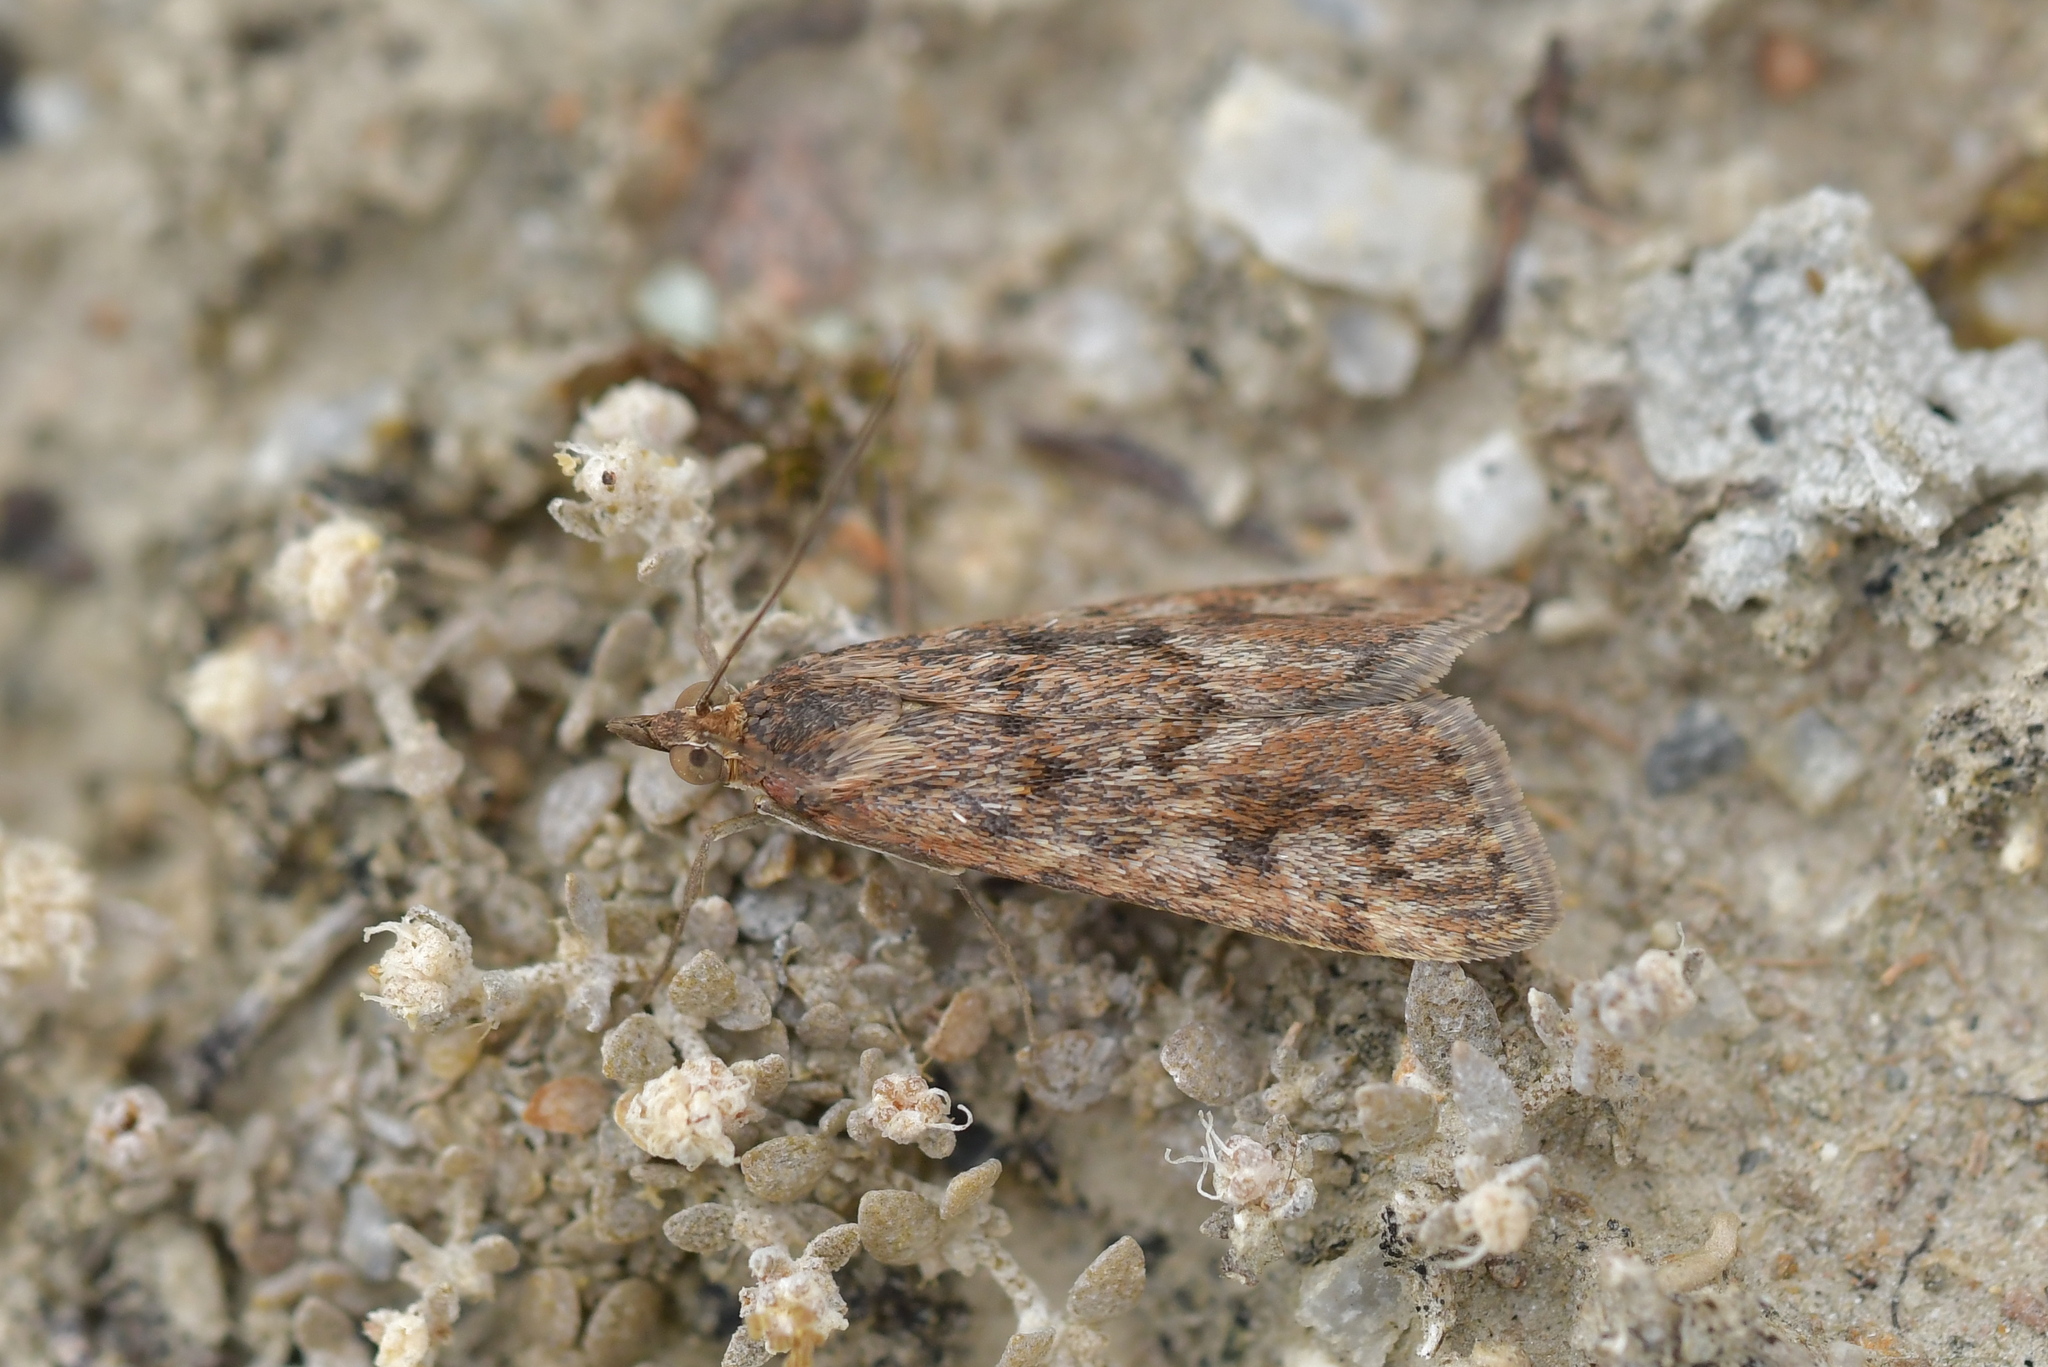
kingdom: Animalia
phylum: Arthropoda
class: Insecta
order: Lepidoptera
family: Crambidae
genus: Achyra
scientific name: Achyra affinitalis
